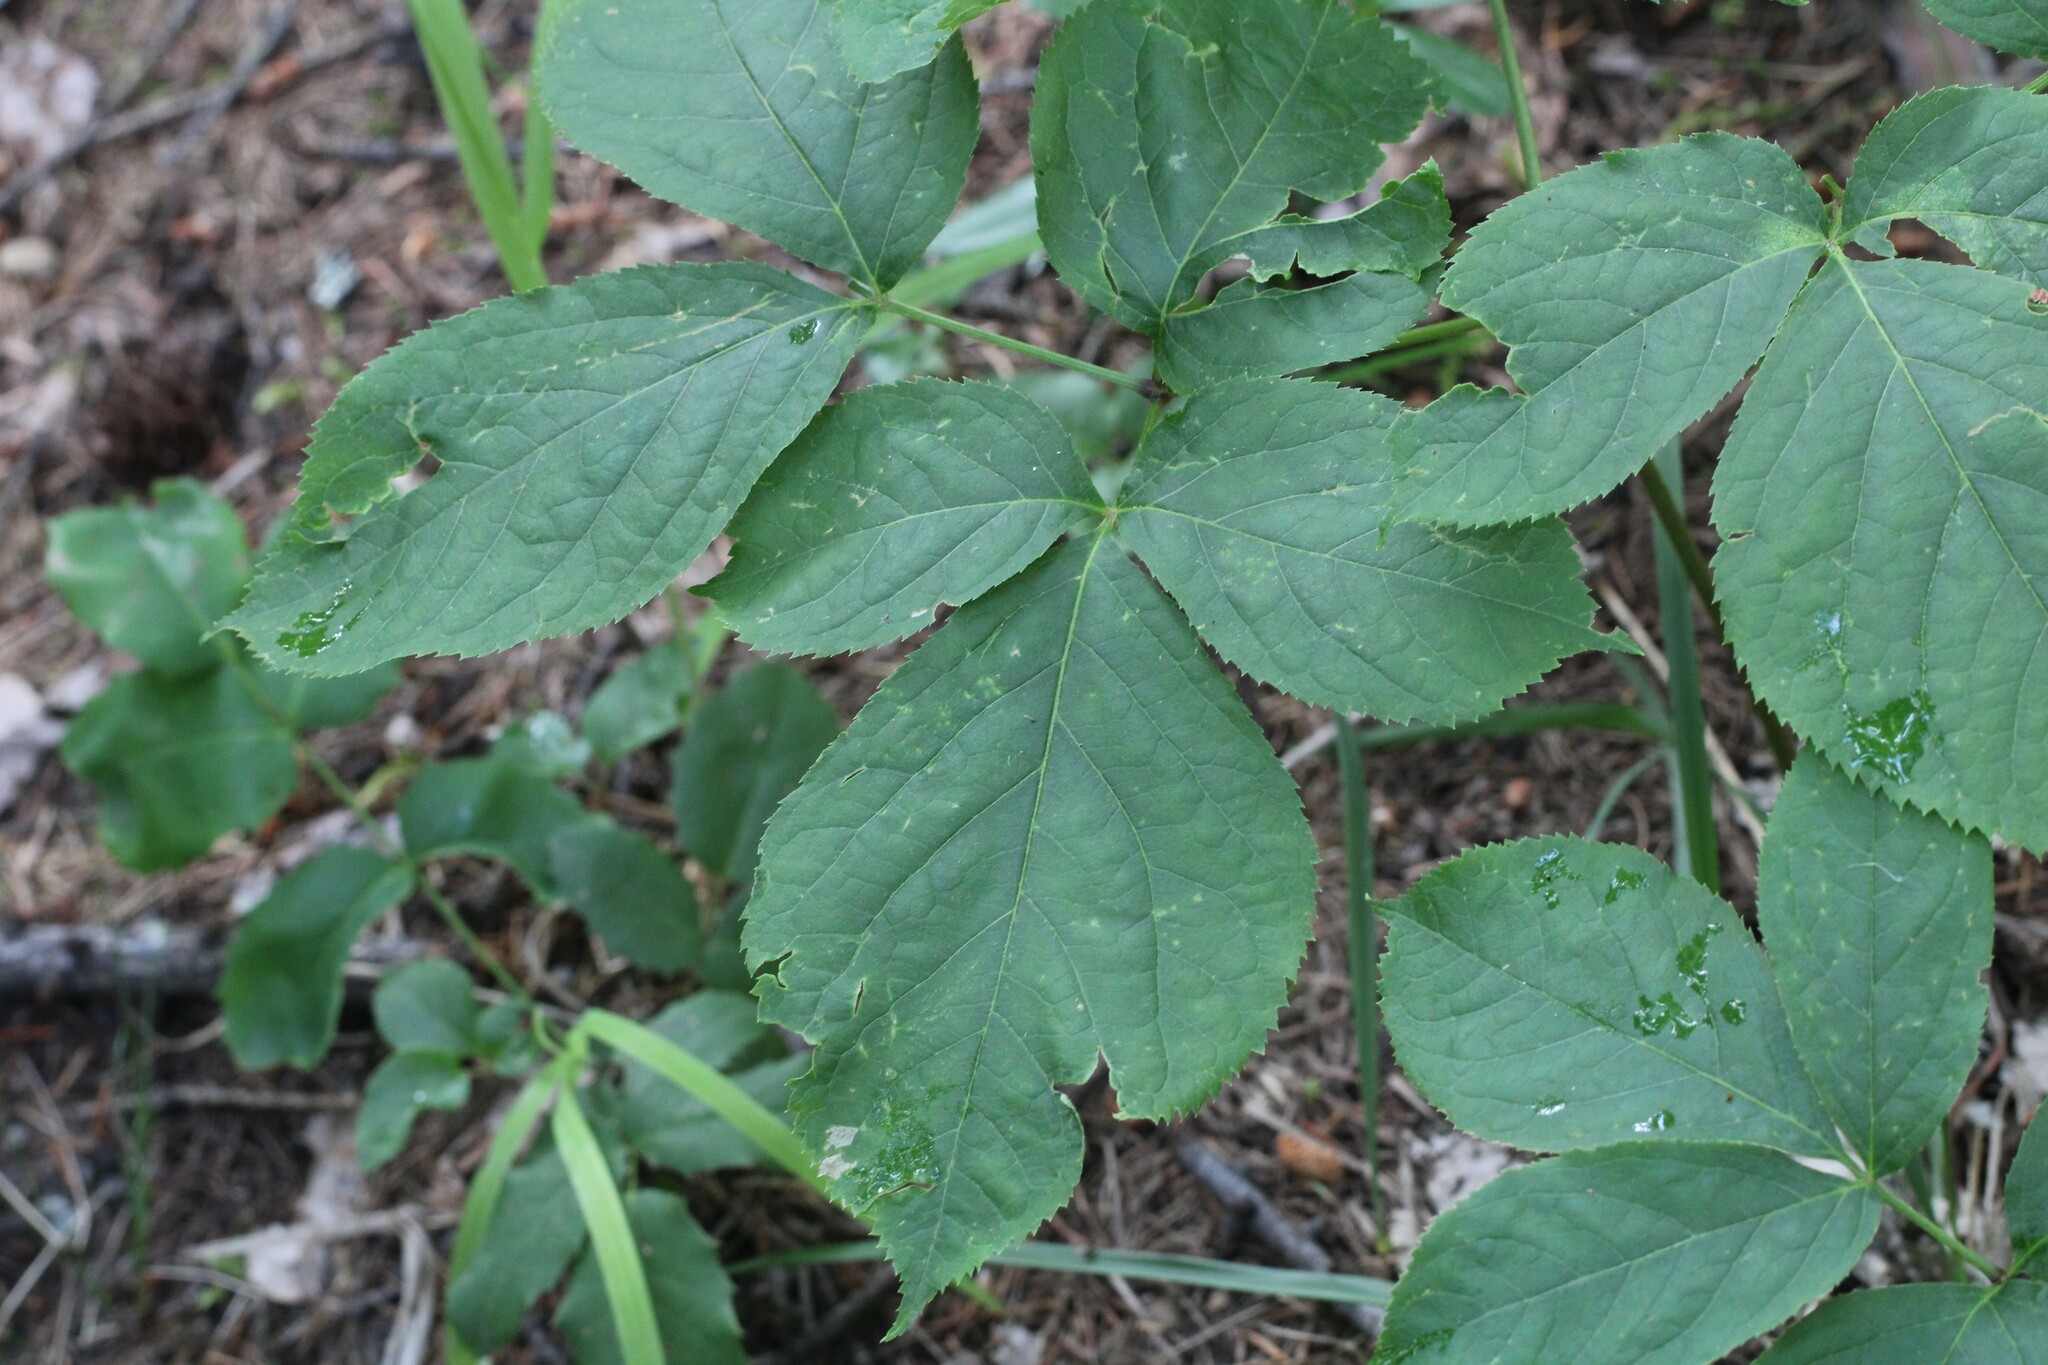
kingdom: Plantae
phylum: Tracheophyta
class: Magnoliopsida
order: Apiales
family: Araliaceae
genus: Aralia
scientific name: Aralia nudicaulis
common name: Wild sarsaparilla
